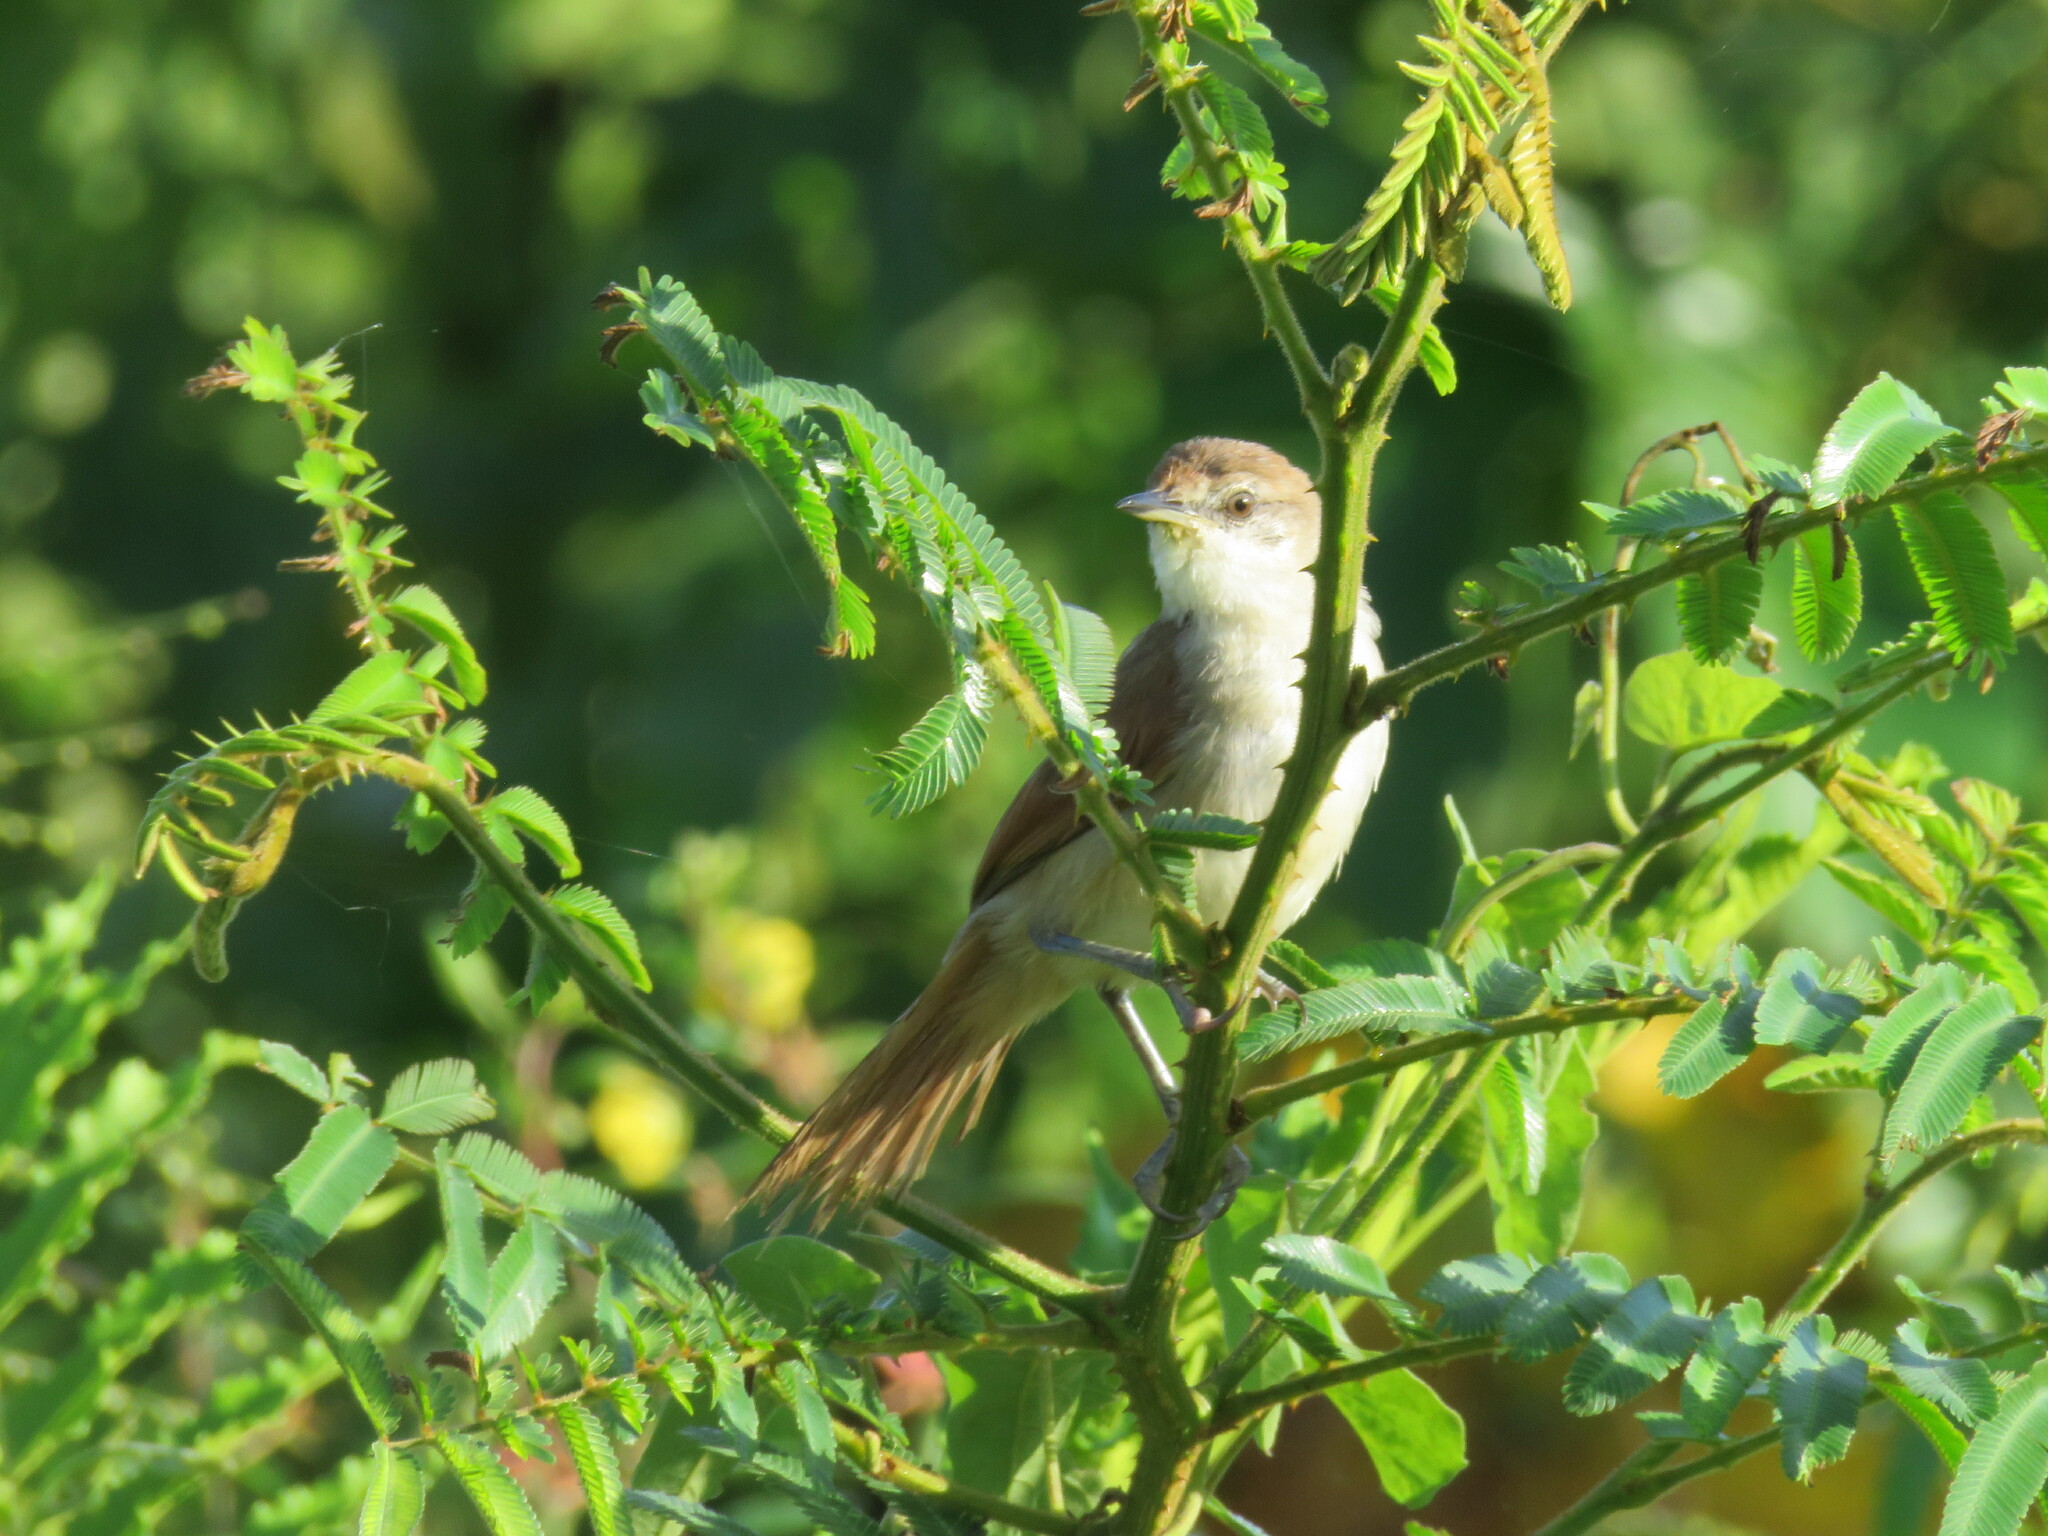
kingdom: Animalia
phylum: Chordata
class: Aves
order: Passeriformes
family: Furnariidae
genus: Certhiaxis
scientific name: Certhiaxis cinnamomeus
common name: Yellow-chinned spinetail
